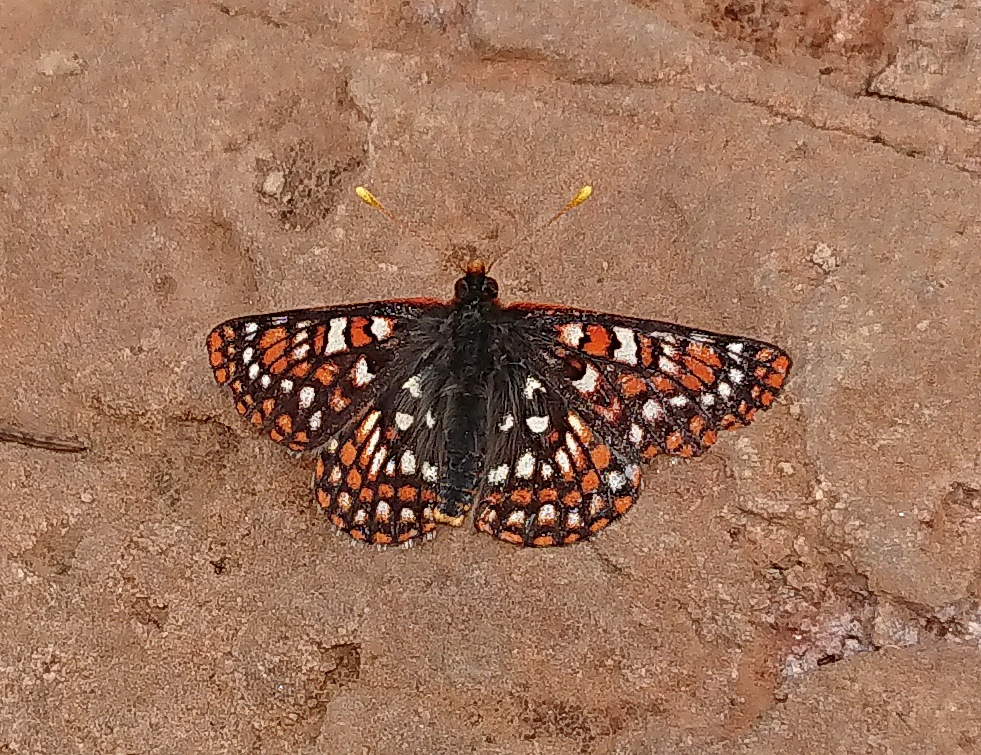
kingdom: Animalia
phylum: Arthropoda
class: Insecta
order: Lepidoptera
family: Nymphalidae
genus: Occidryas
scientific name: Occidryas anicia
